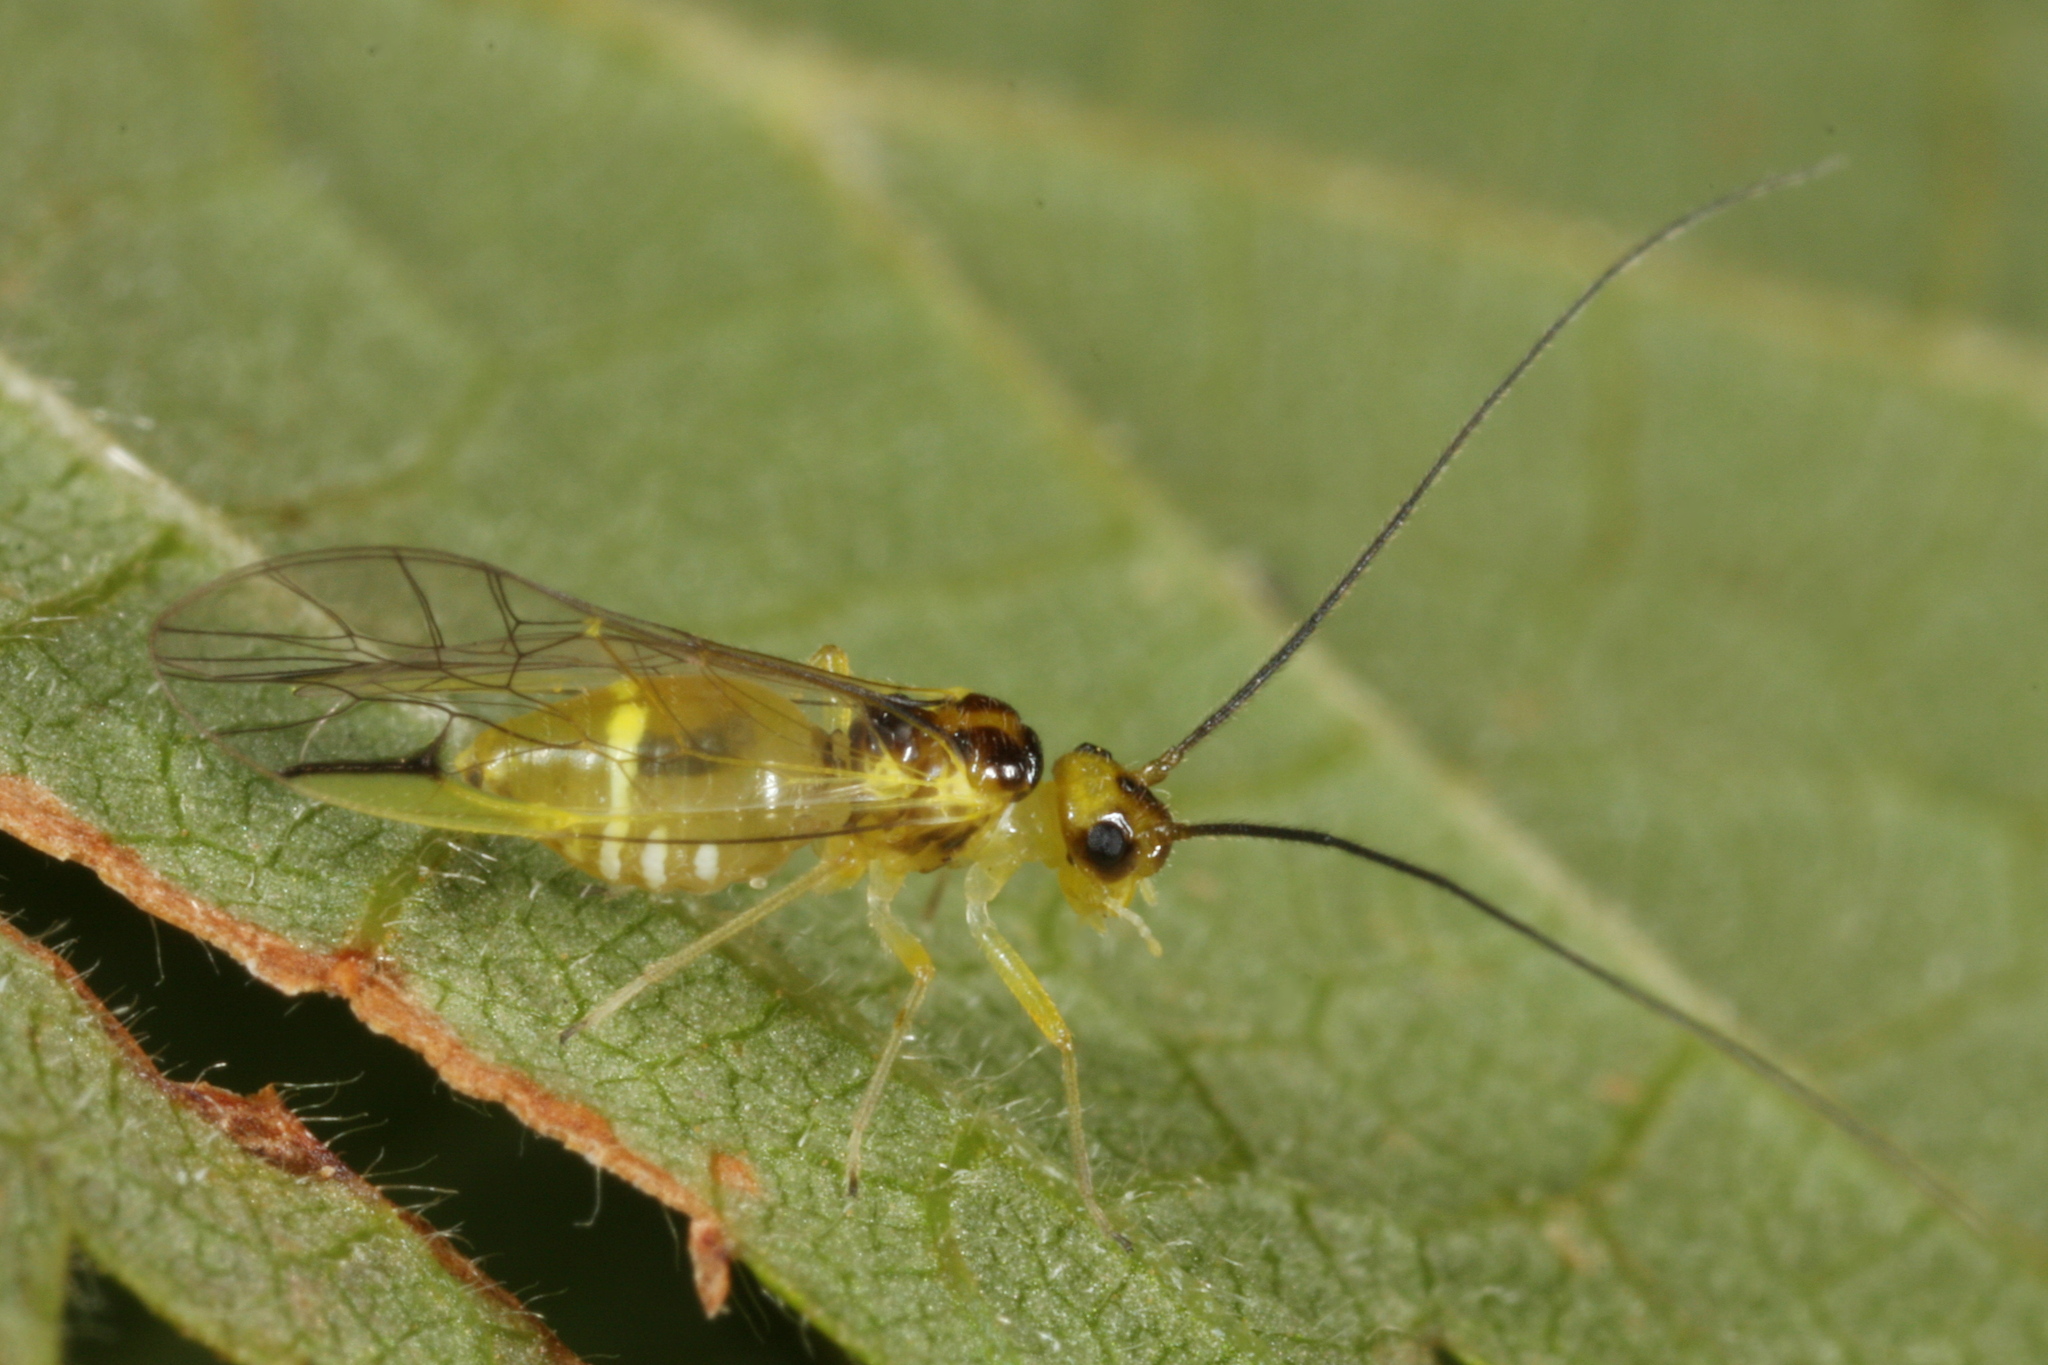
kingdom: Animalia
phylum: Arthropoda
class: Insecta
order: Psocodea
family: Stenopsocidae
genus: Stenopsocus
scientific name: Stenopsocus stigmaticus
